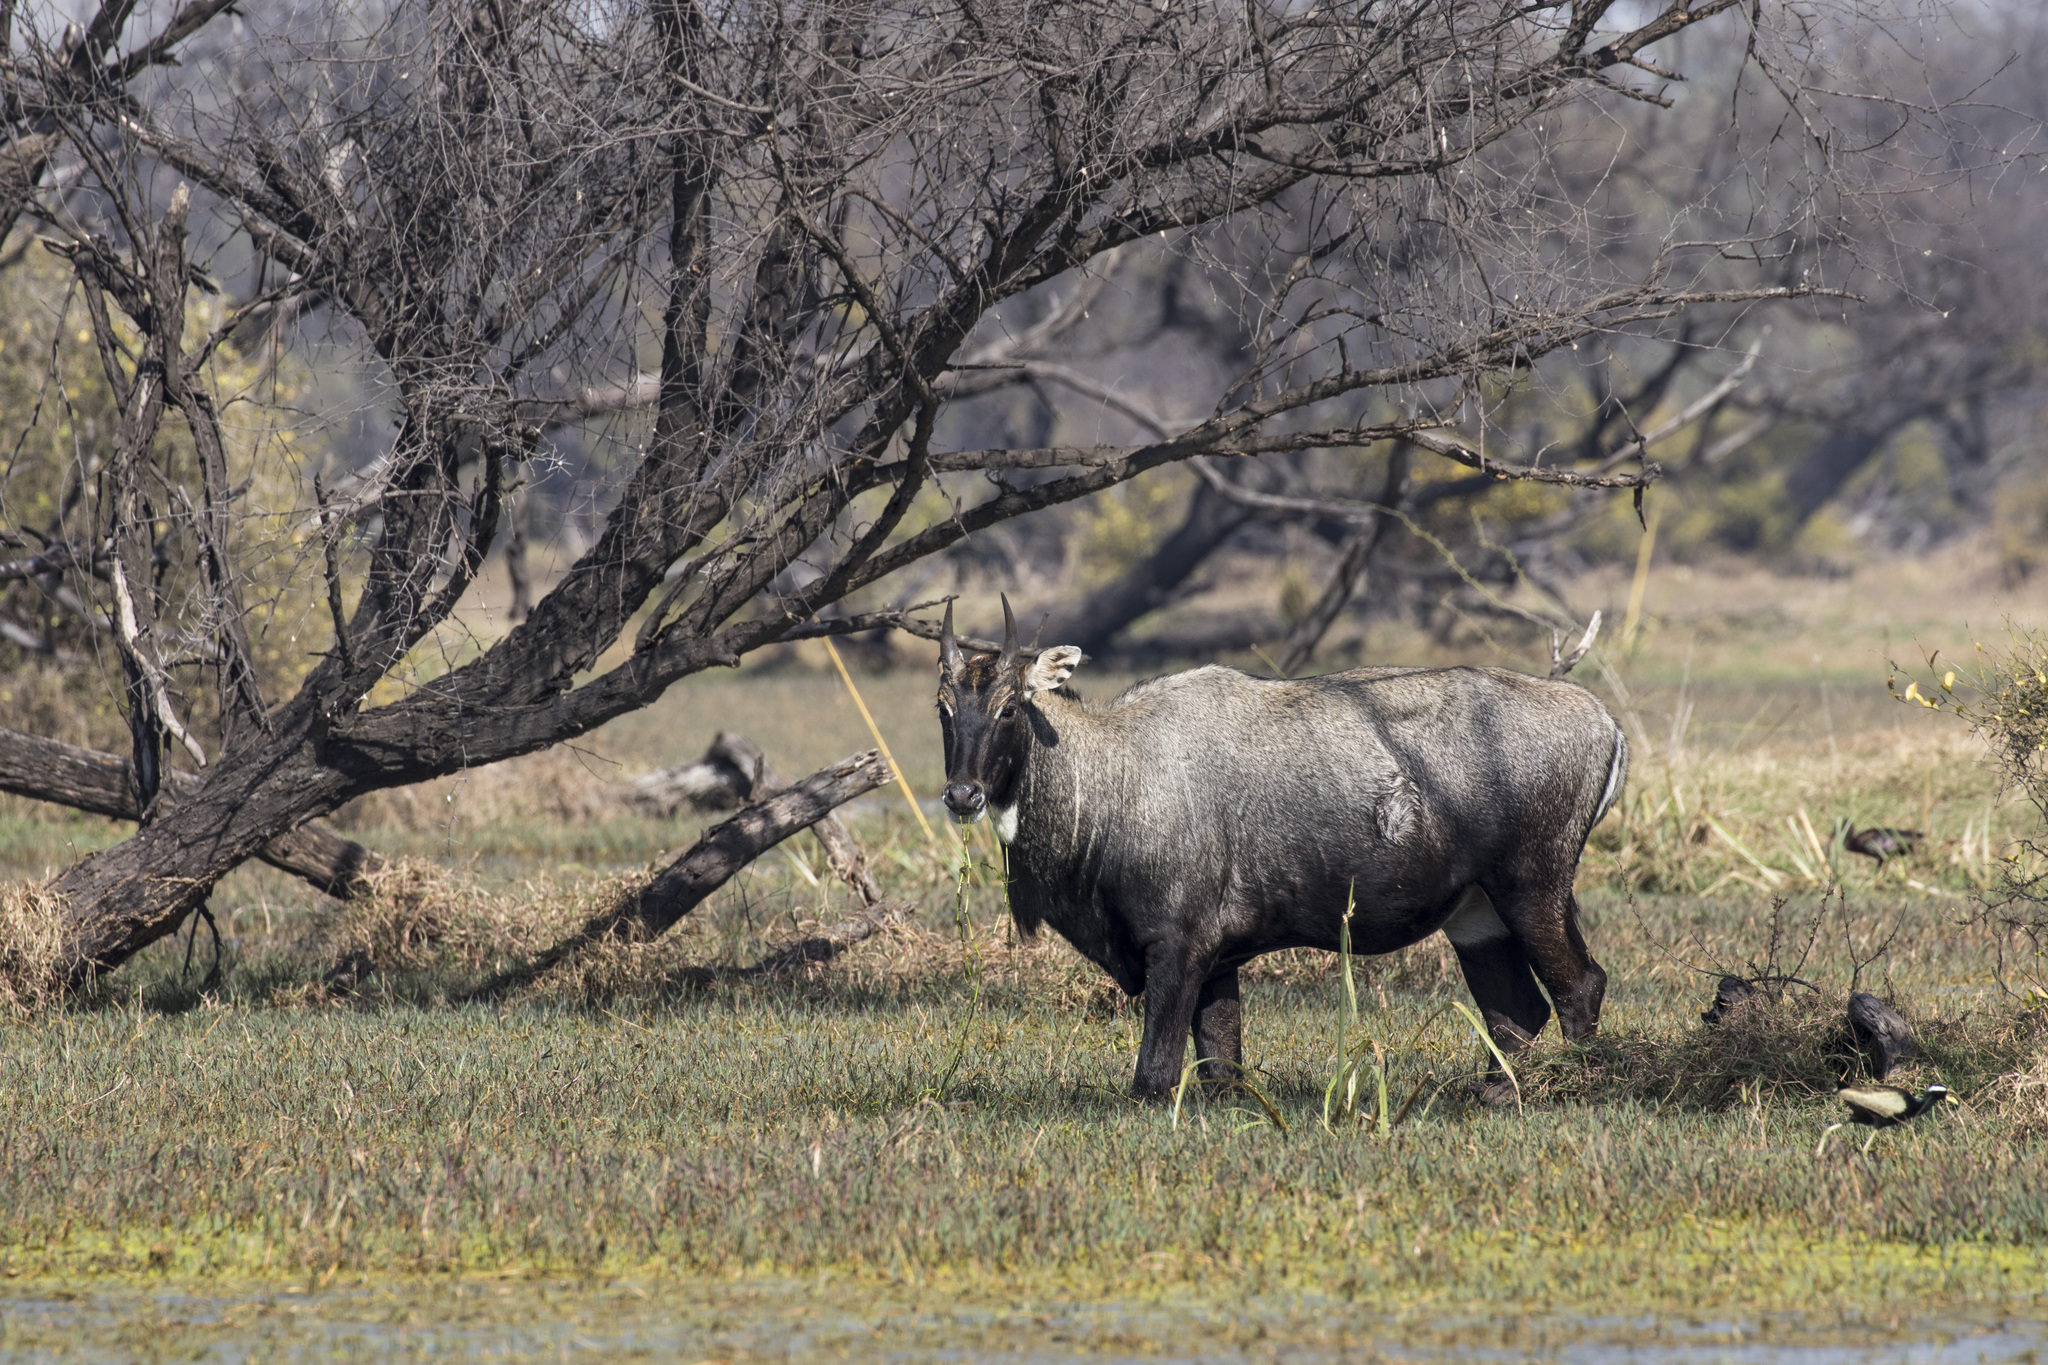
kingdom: Animalia
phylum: Chordata
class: Mammalia
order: Artiodactyla
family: Bovidae
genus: Boselaphus
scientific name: Boselaphus tragocamelus
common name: Nilgai
